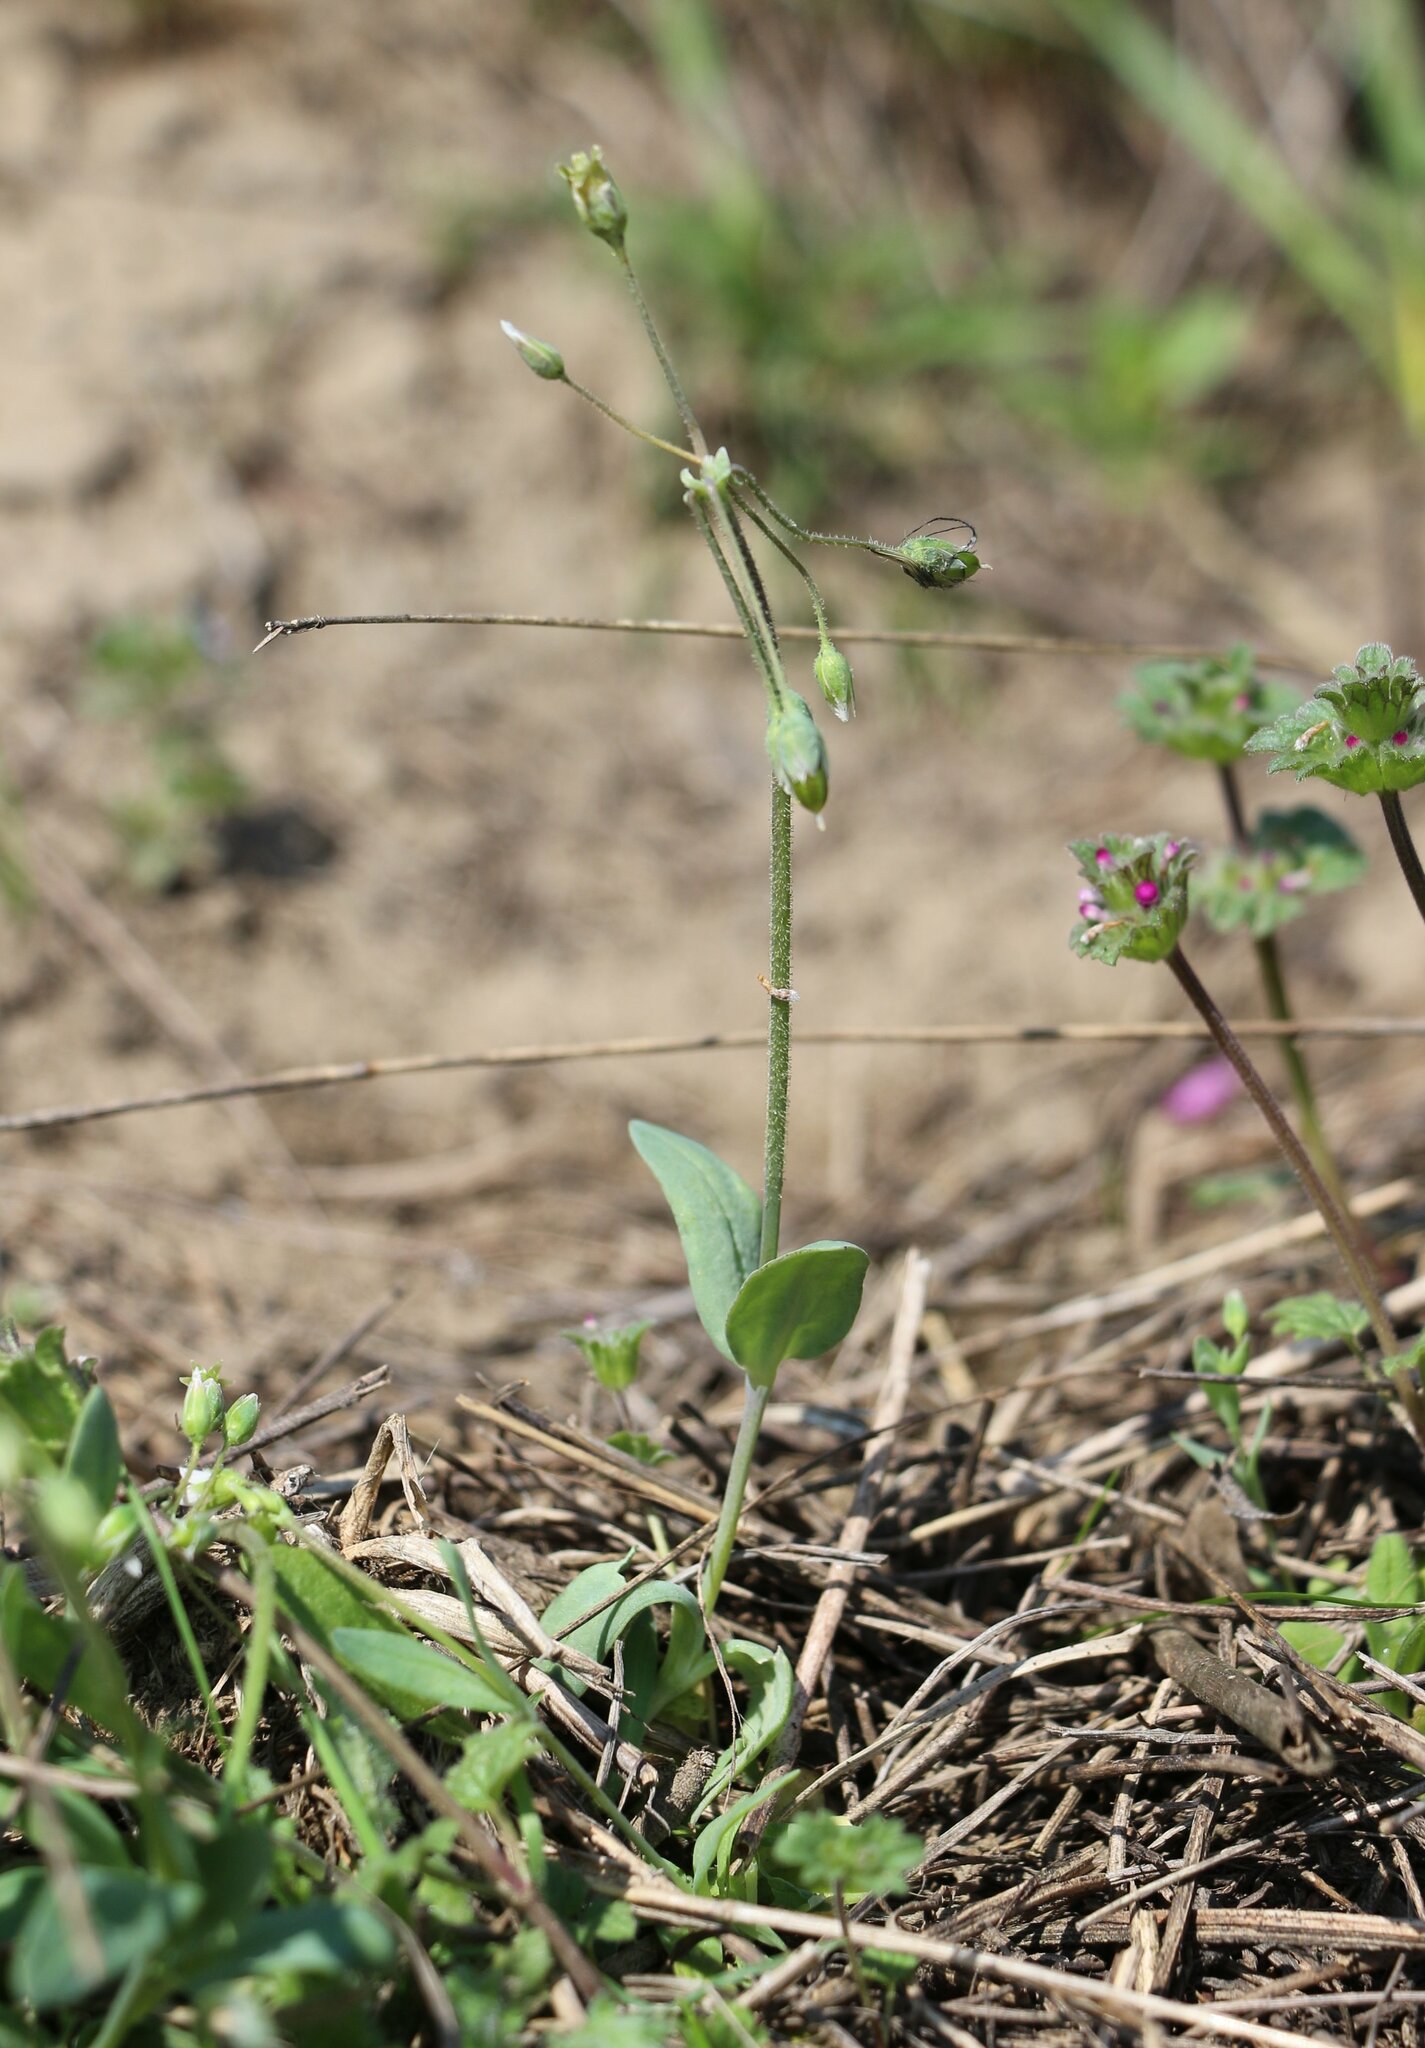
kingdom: Plantae
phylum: Tracheophyta
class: Magnoliopsida
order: Caryophyllales
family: Caryophyllaceae
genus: Holosteum
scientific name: Holosteum umbellatum
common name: Jagged chickweed
